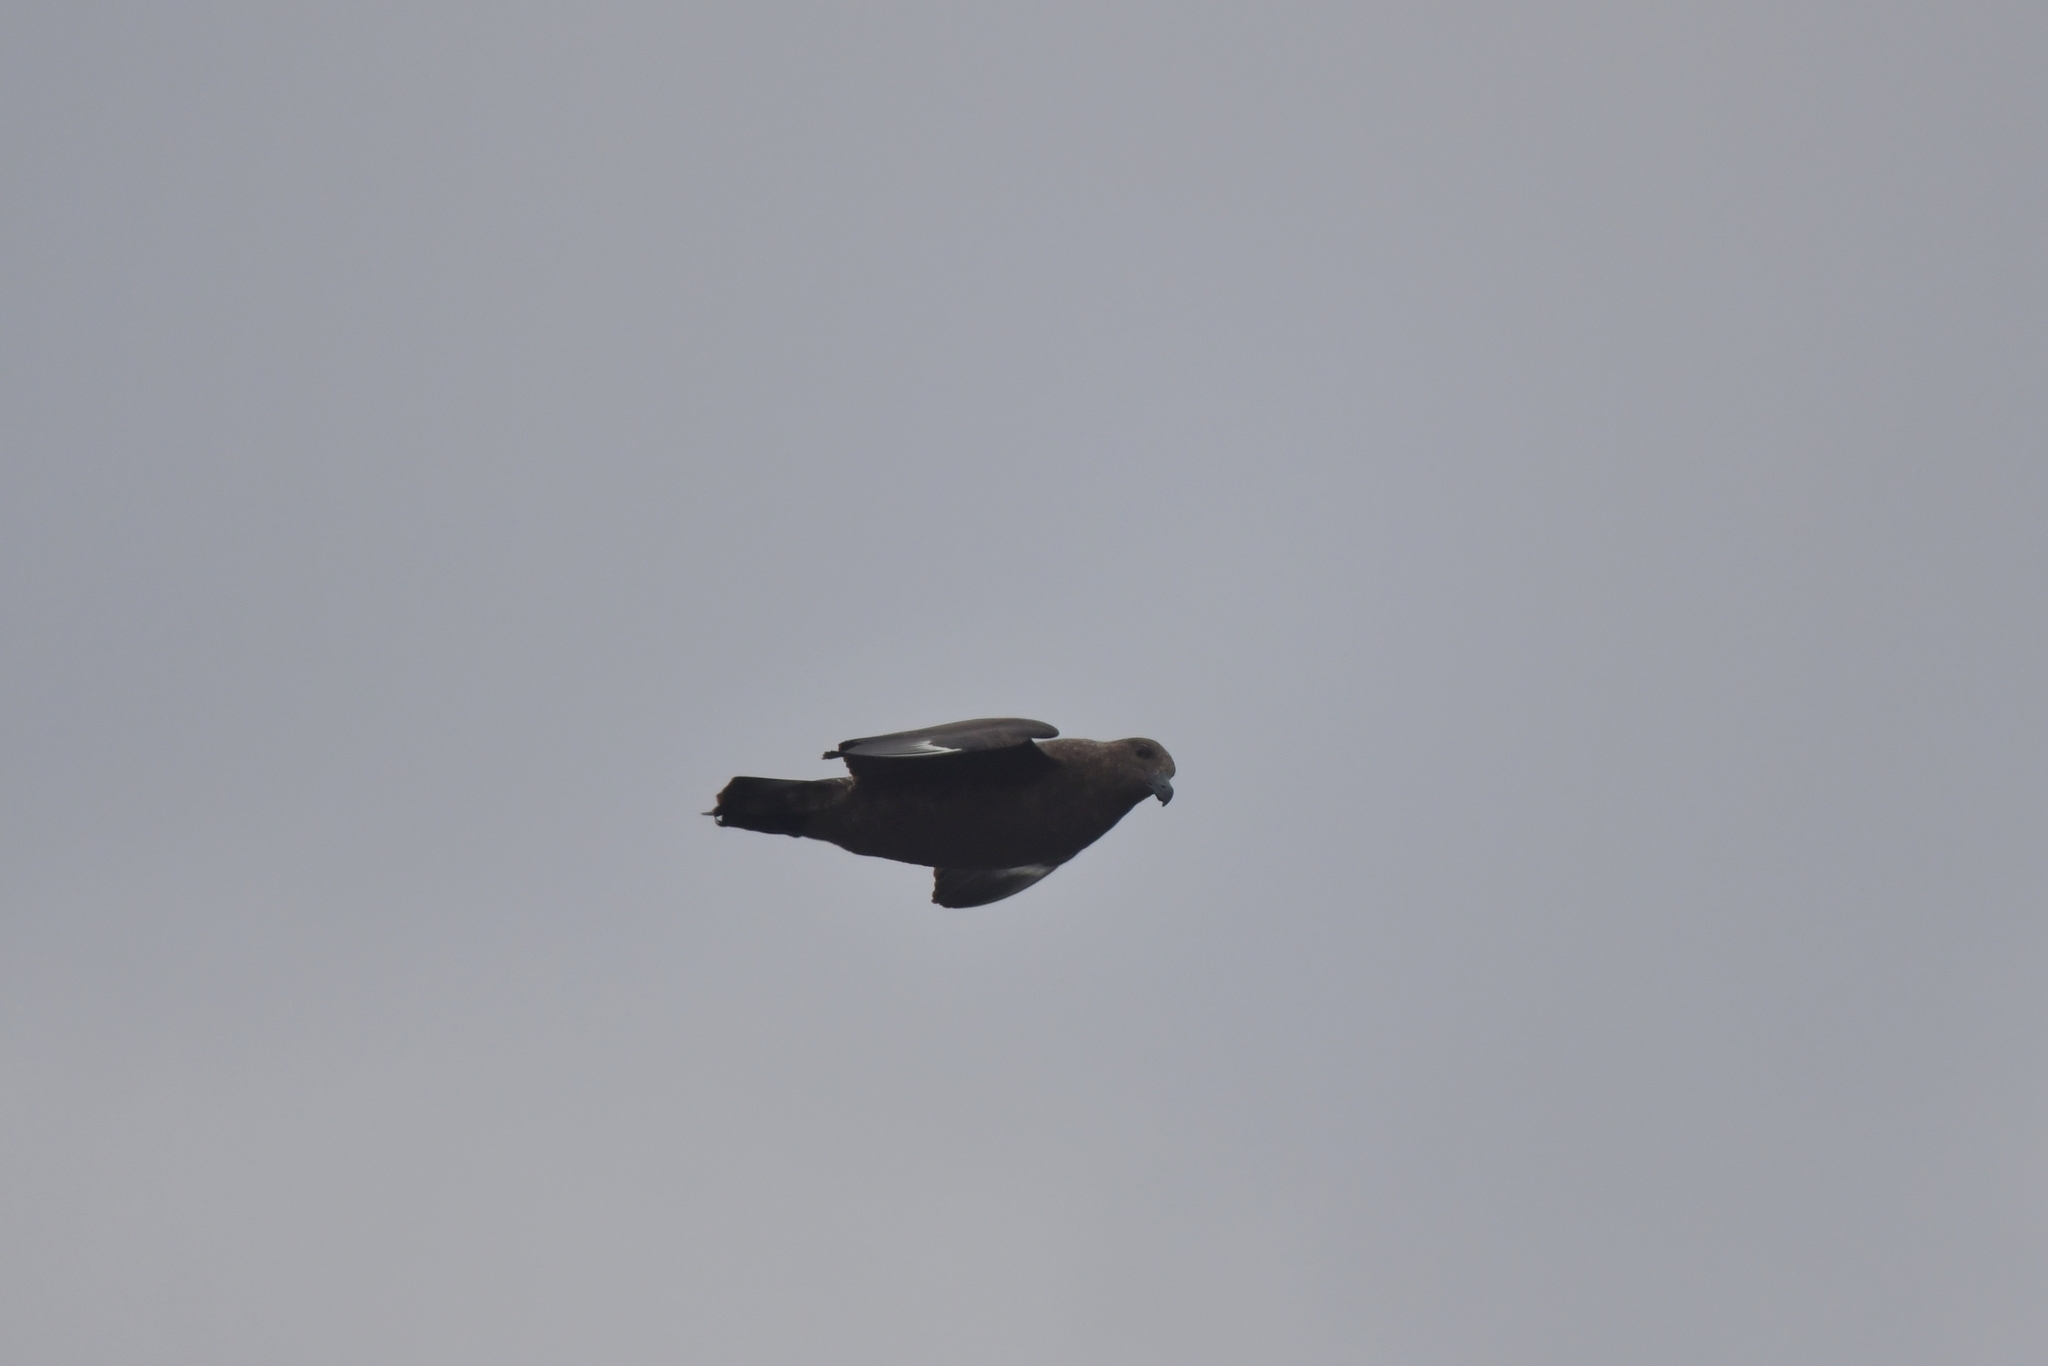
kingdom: Animalia
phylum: Chordata
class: Aves
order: Charadriiformes
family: Stercorariidae
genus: Stercorarius
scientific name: Stercorarius antarcticus
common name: Brown skua
